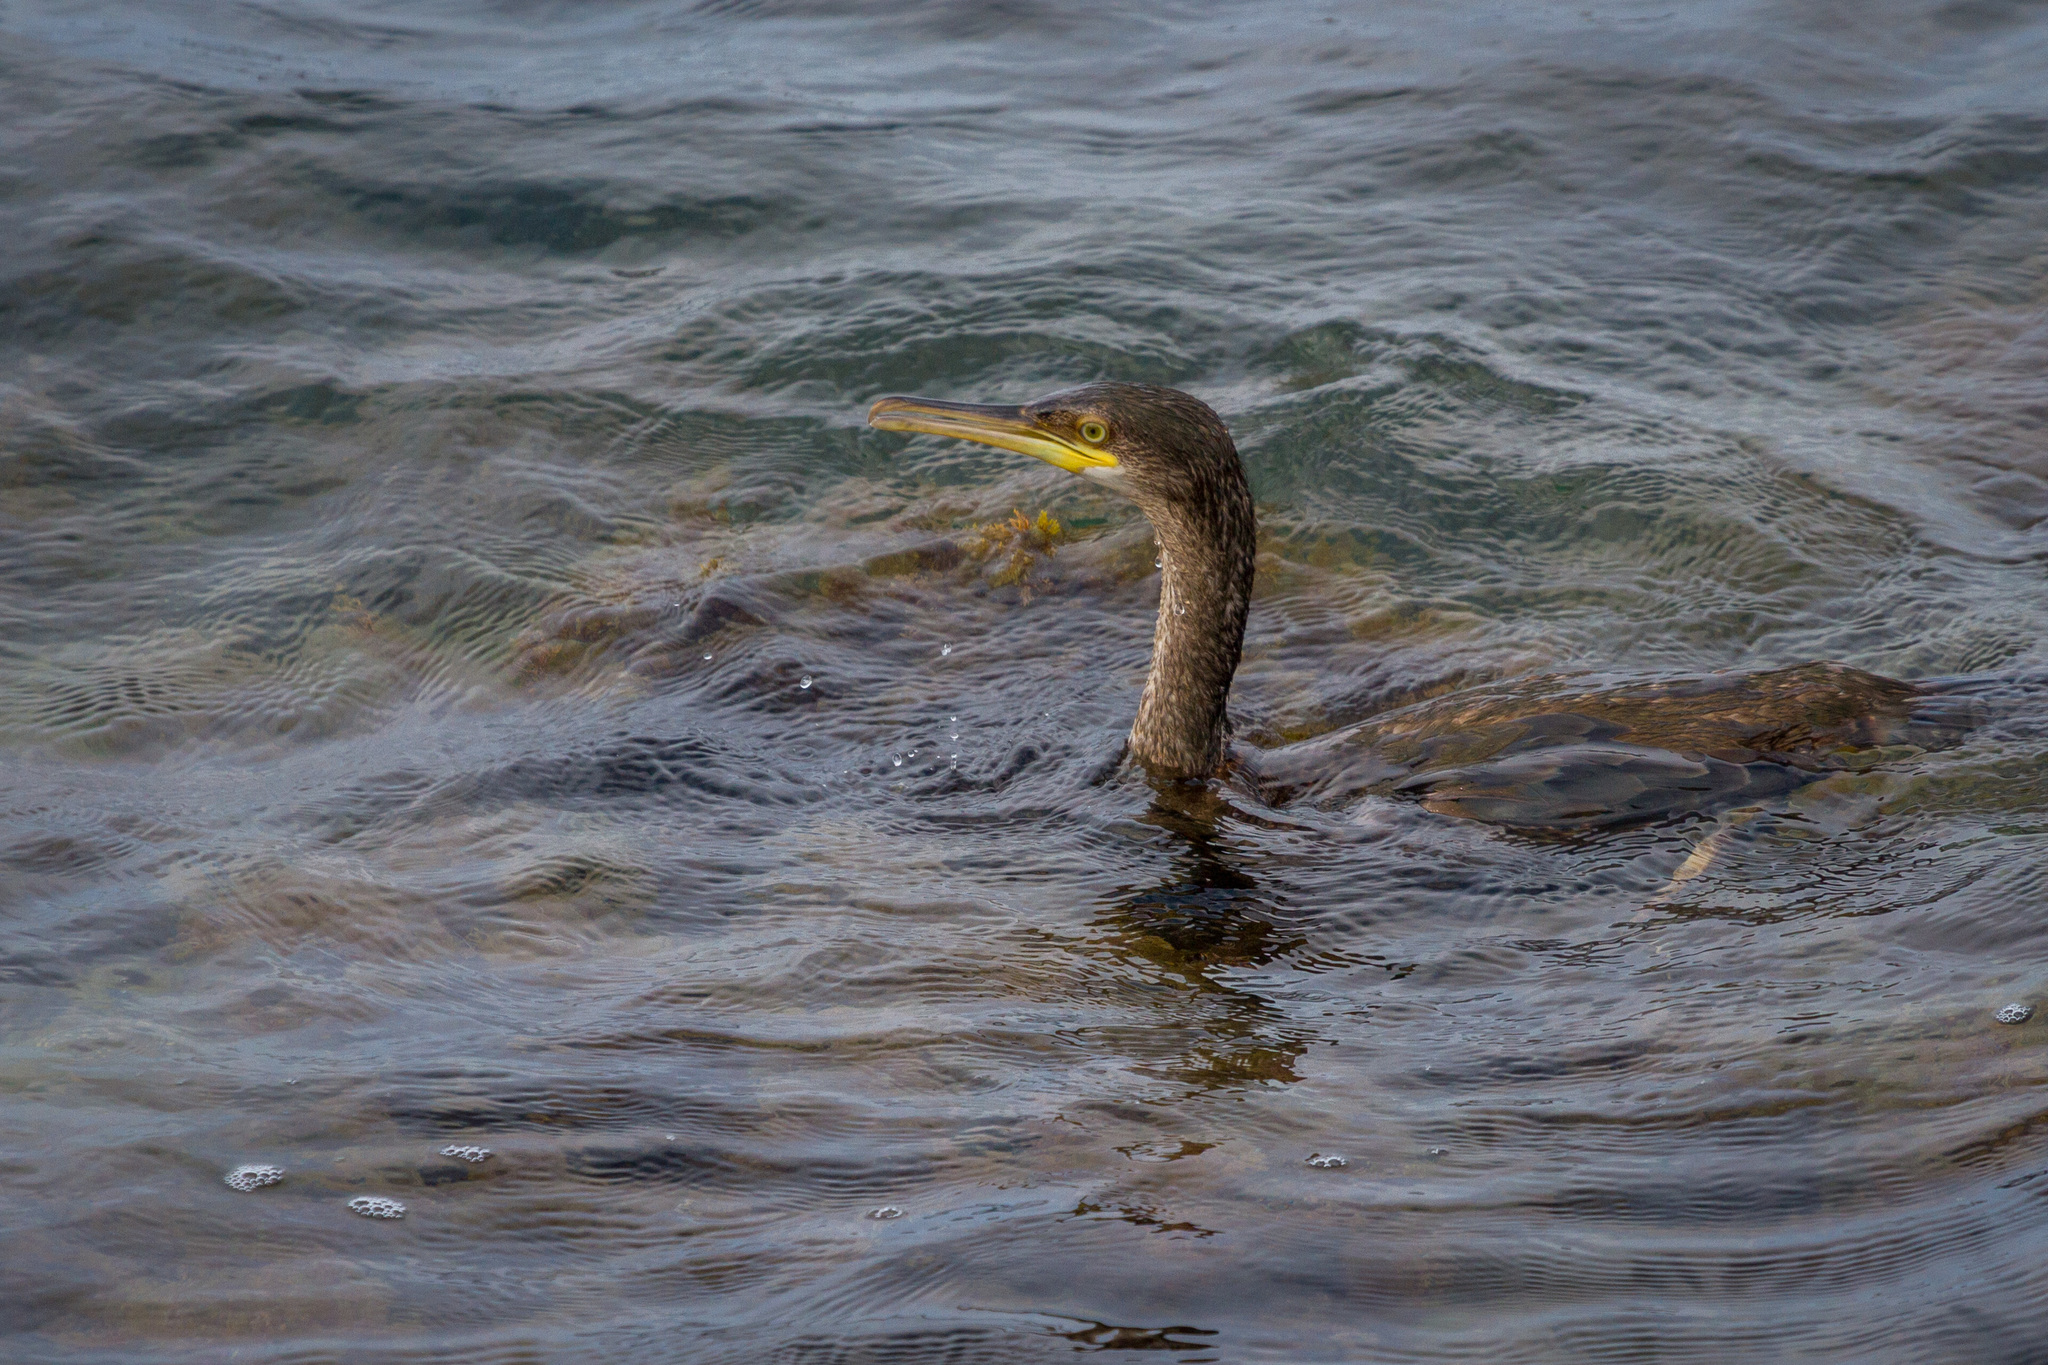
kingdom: Animalia
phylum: Chordata
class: Aves
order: Suliformes
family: Phalacrocoracidae
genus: Phalacrocorax
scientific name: Phalacrocorax aristotelis
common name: European shag
